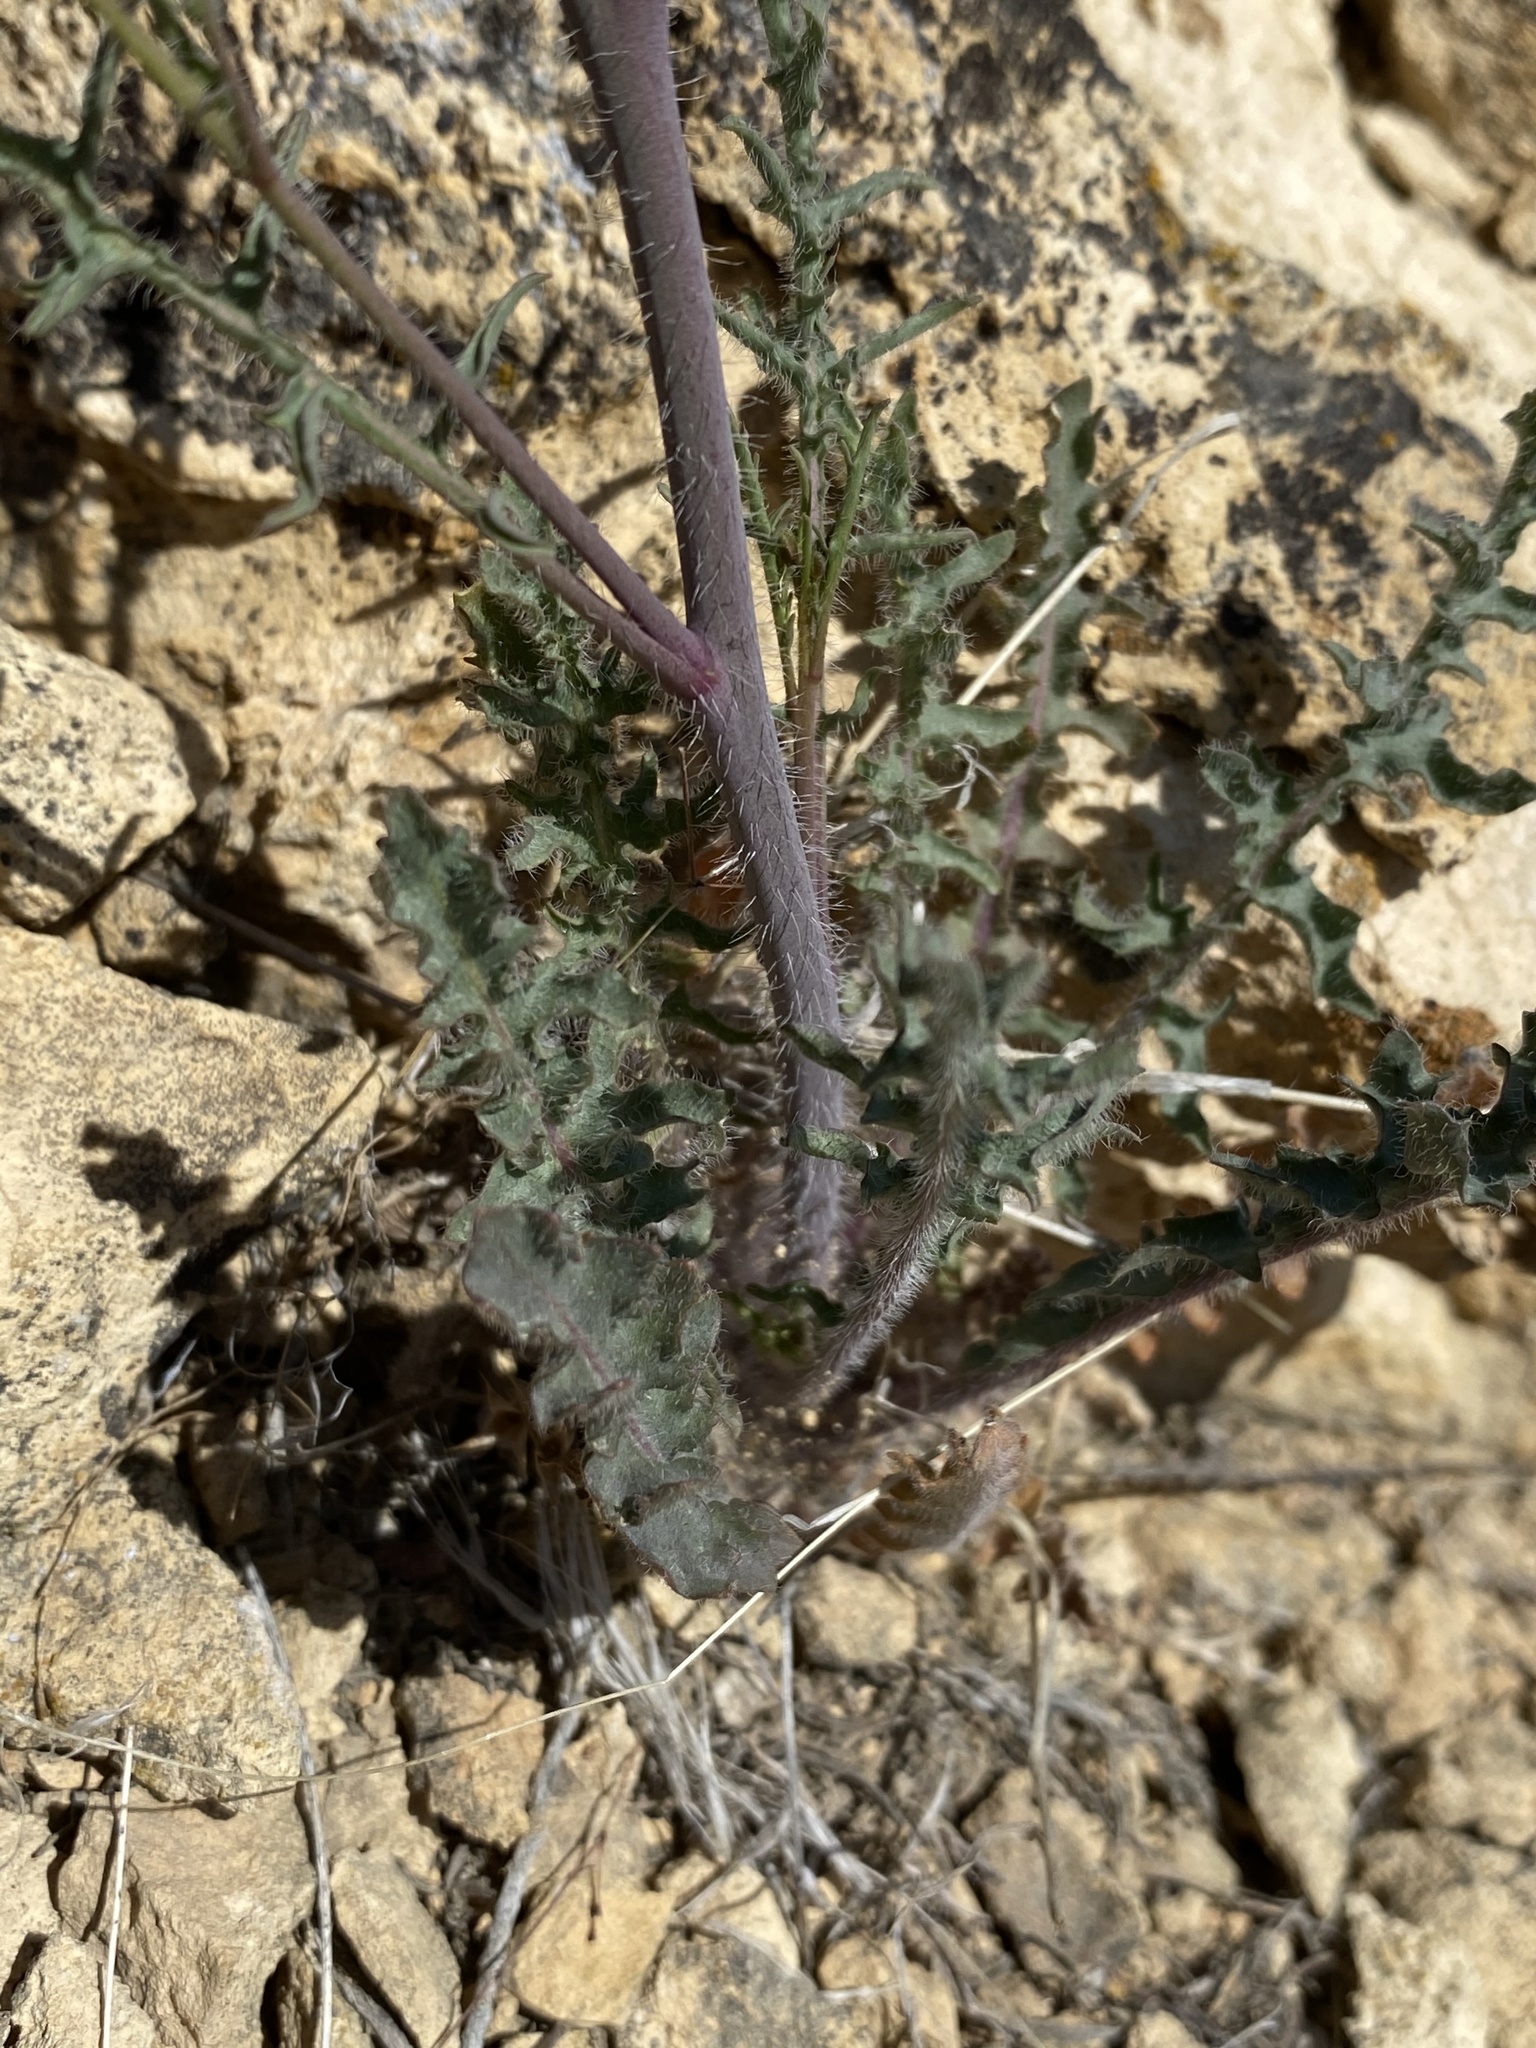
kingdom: Plantae
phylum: Tracheophyta
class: Magnoliopsida
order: Brassicales
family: Brassicaceae
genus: Streptanthus
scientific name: Streptanthus pilosus
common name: Chocolate drops
